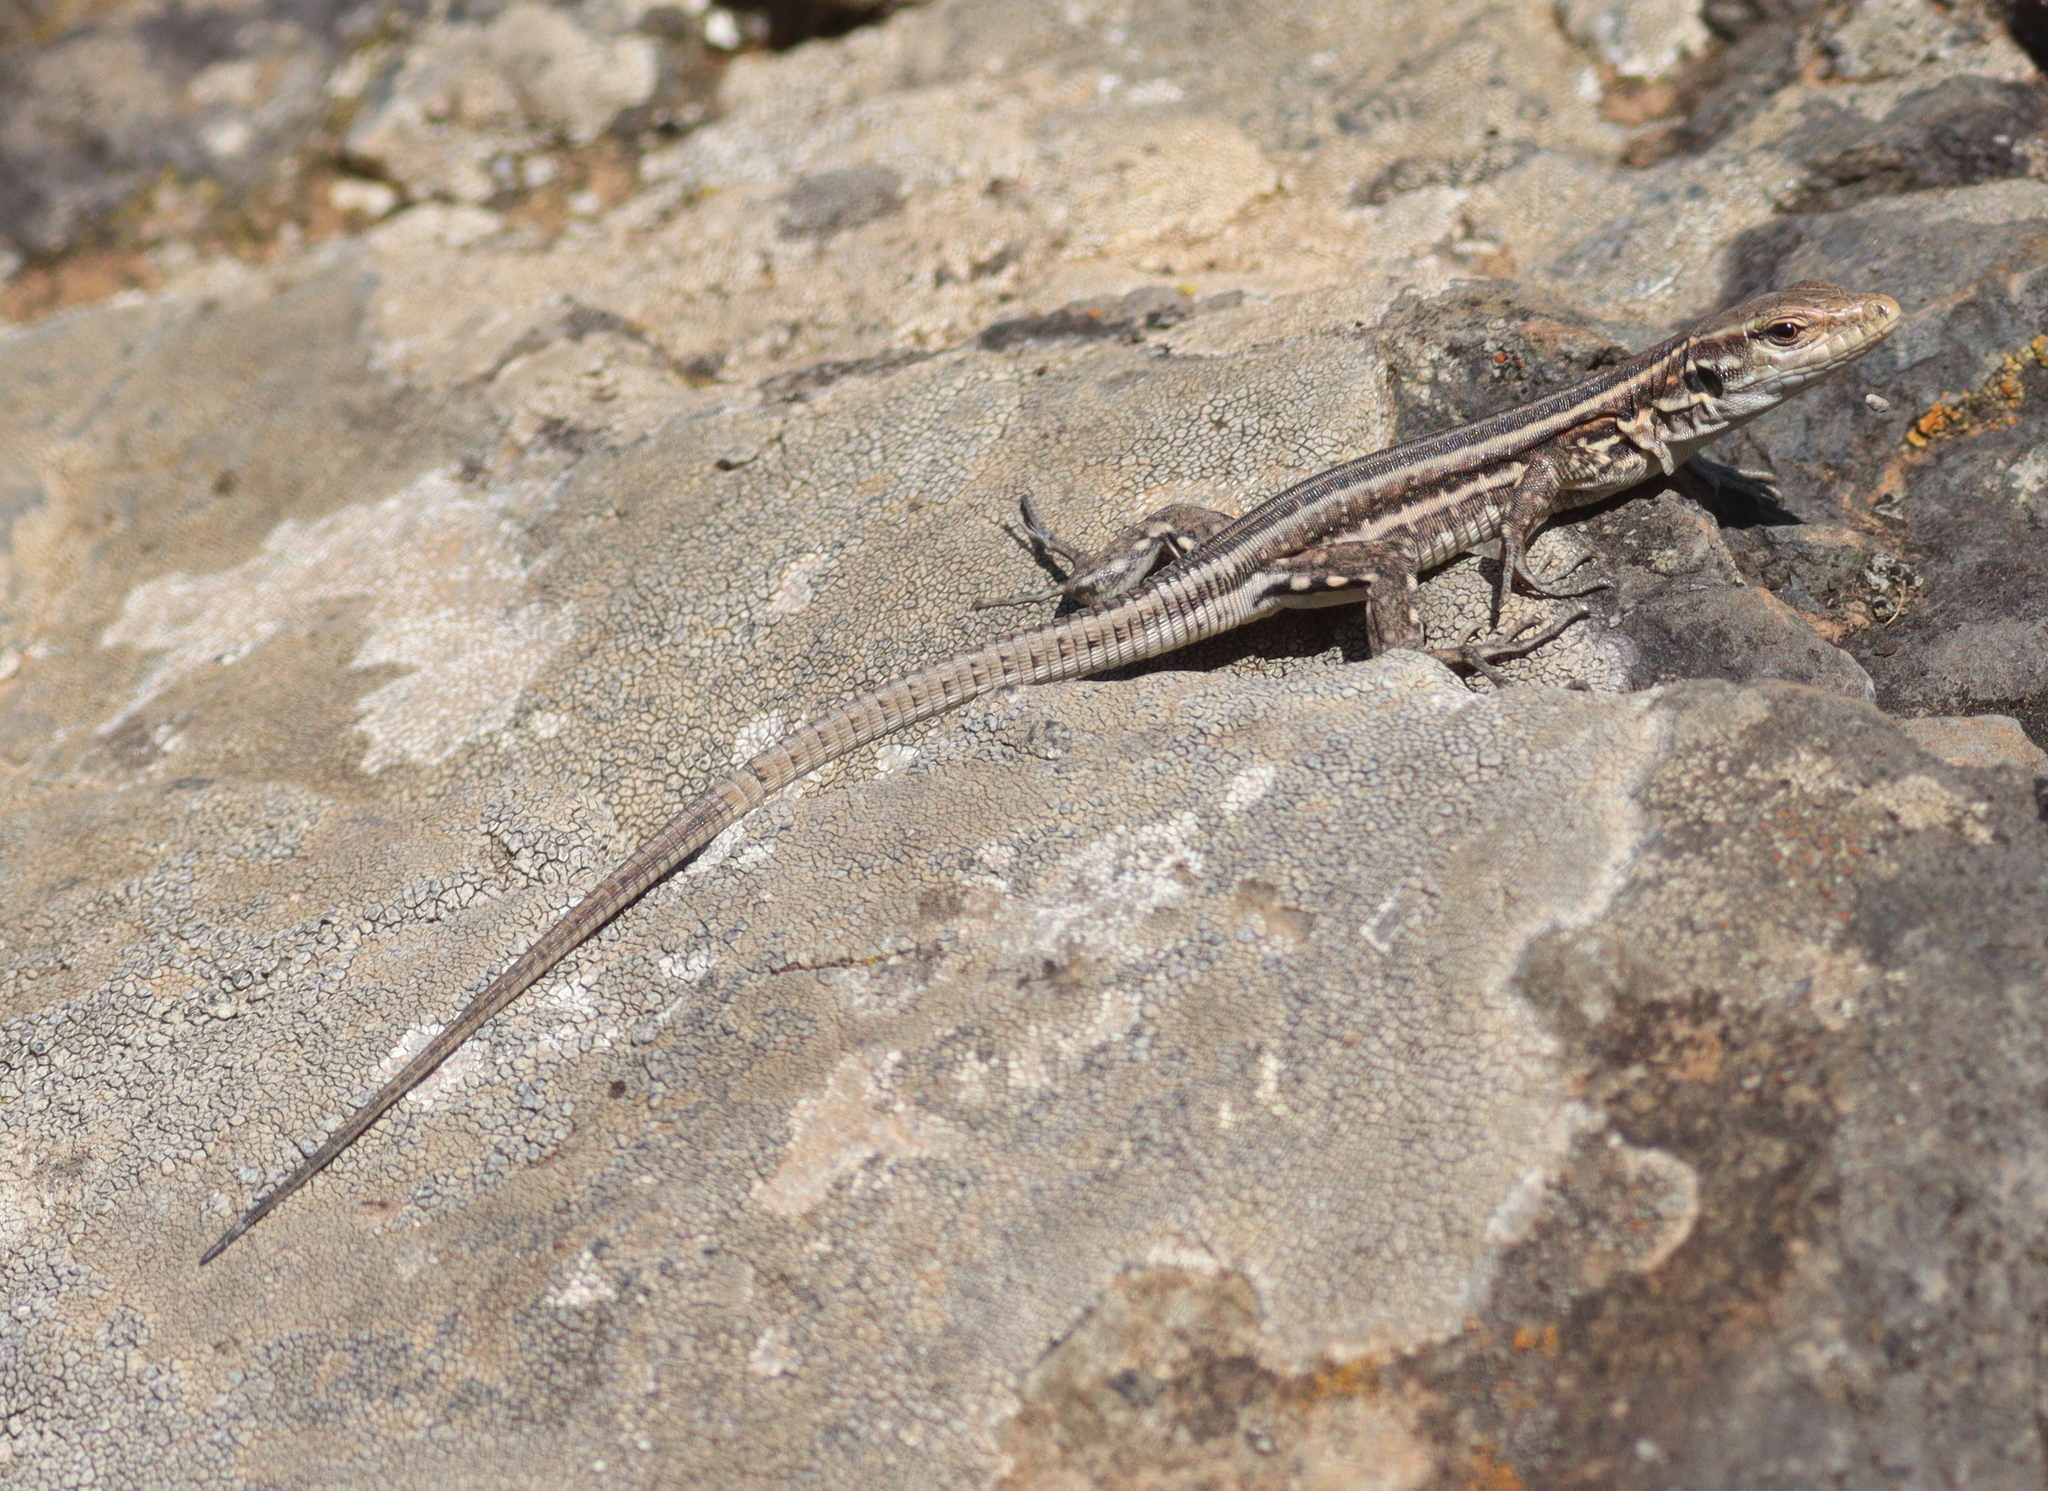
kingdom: Animalia
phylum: Chordata
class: Squamata
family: Lacertidae
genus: Gallotia
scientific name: Gallotia galloti
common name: Gallot's lizard
